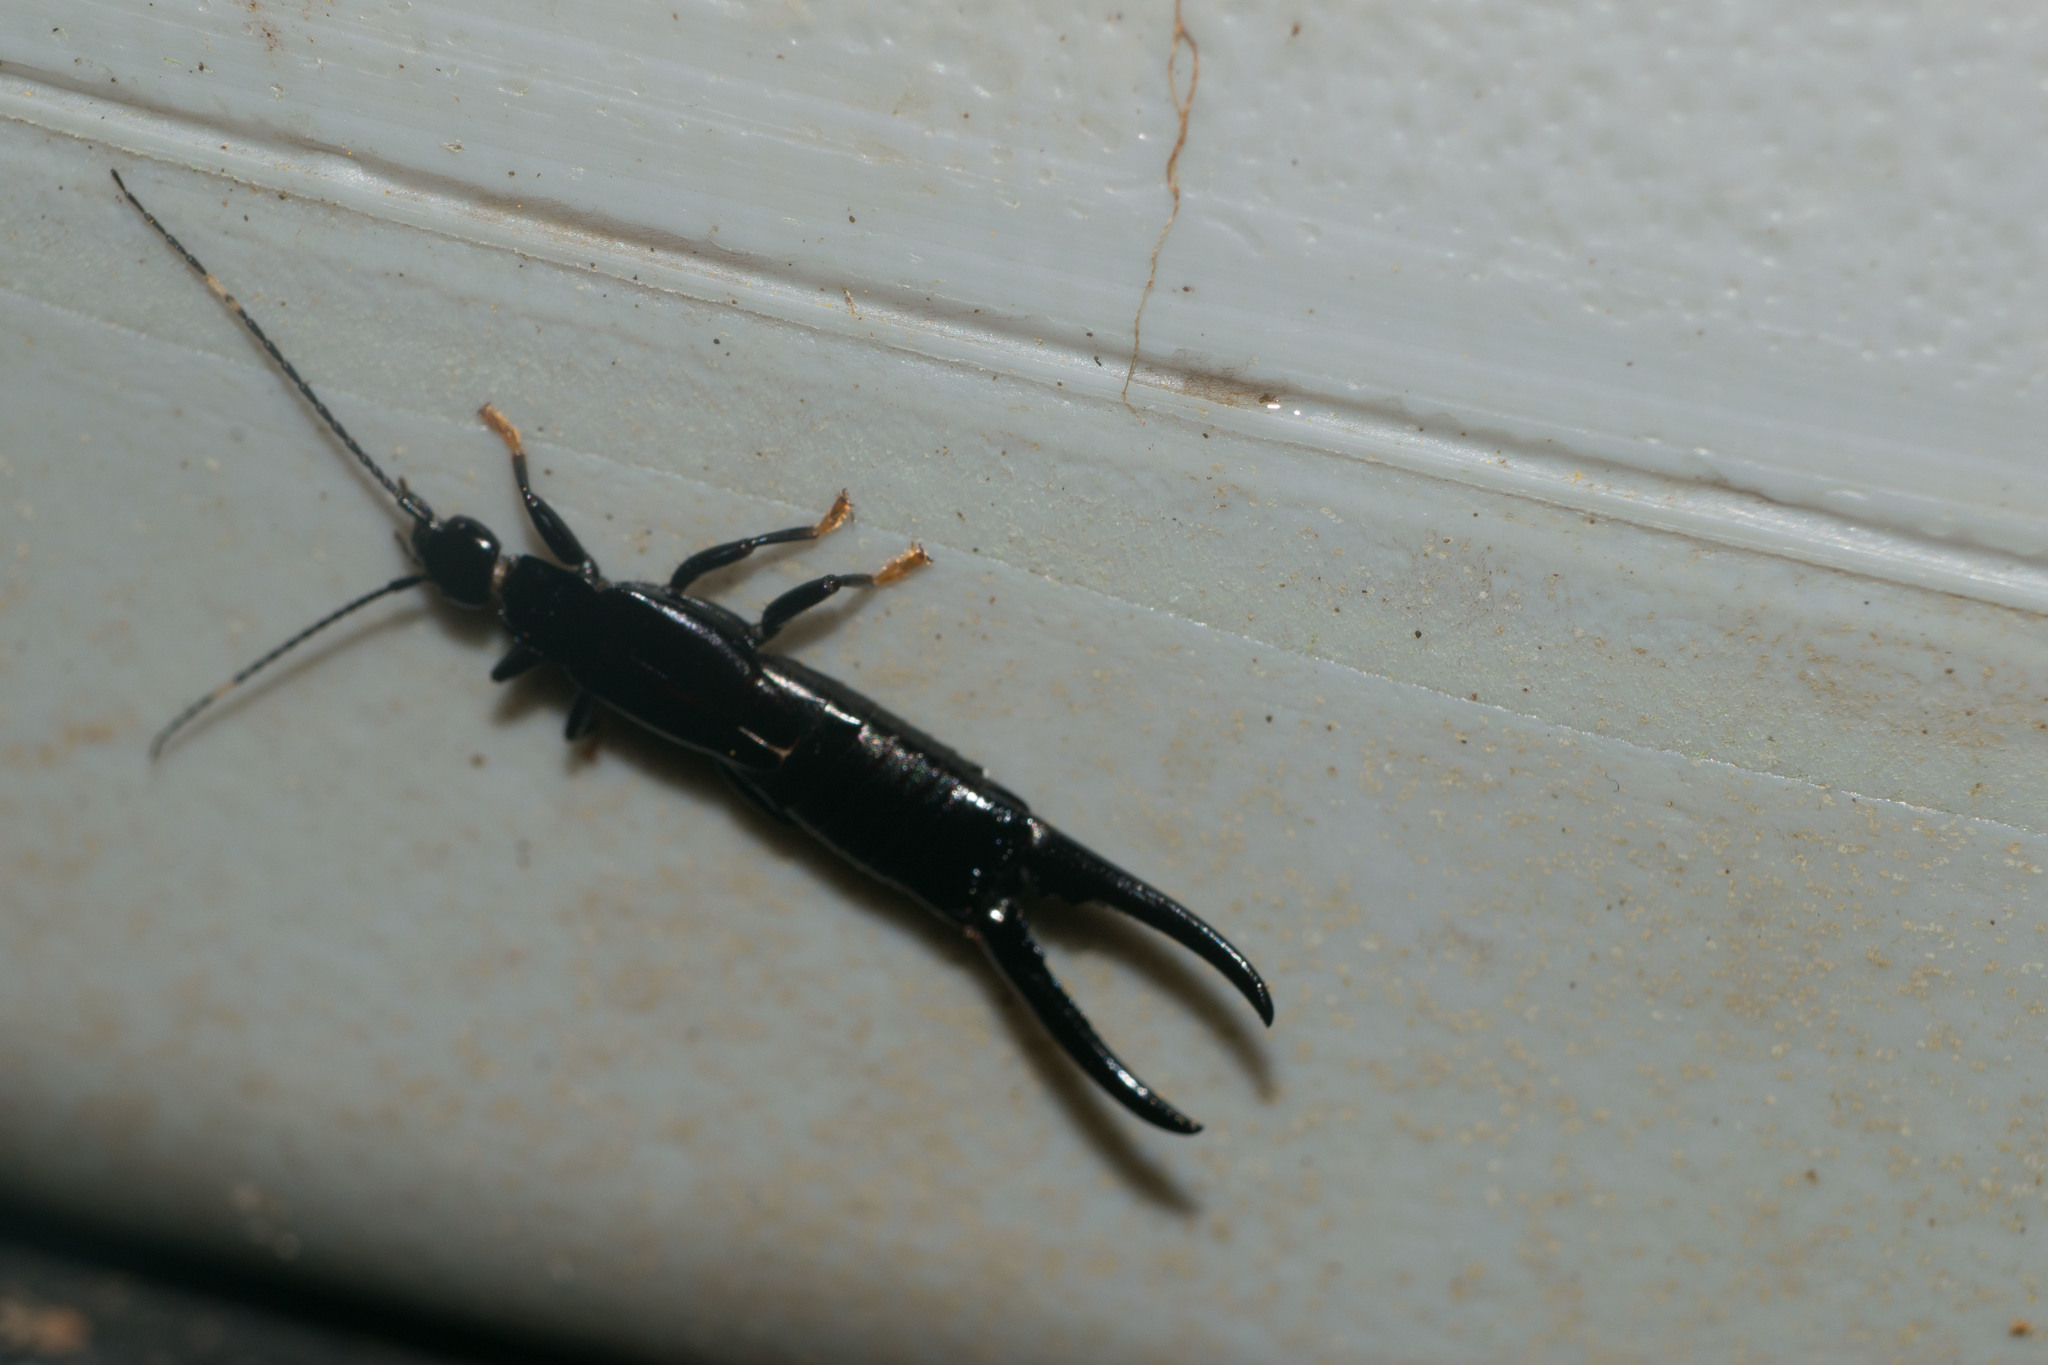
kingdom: Animalia
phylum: Arthropoda
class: Insecta
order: Dermaptera
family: Chelisochidae
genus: Chelisoches
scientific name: Chelisoches morio
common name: Black earwig
